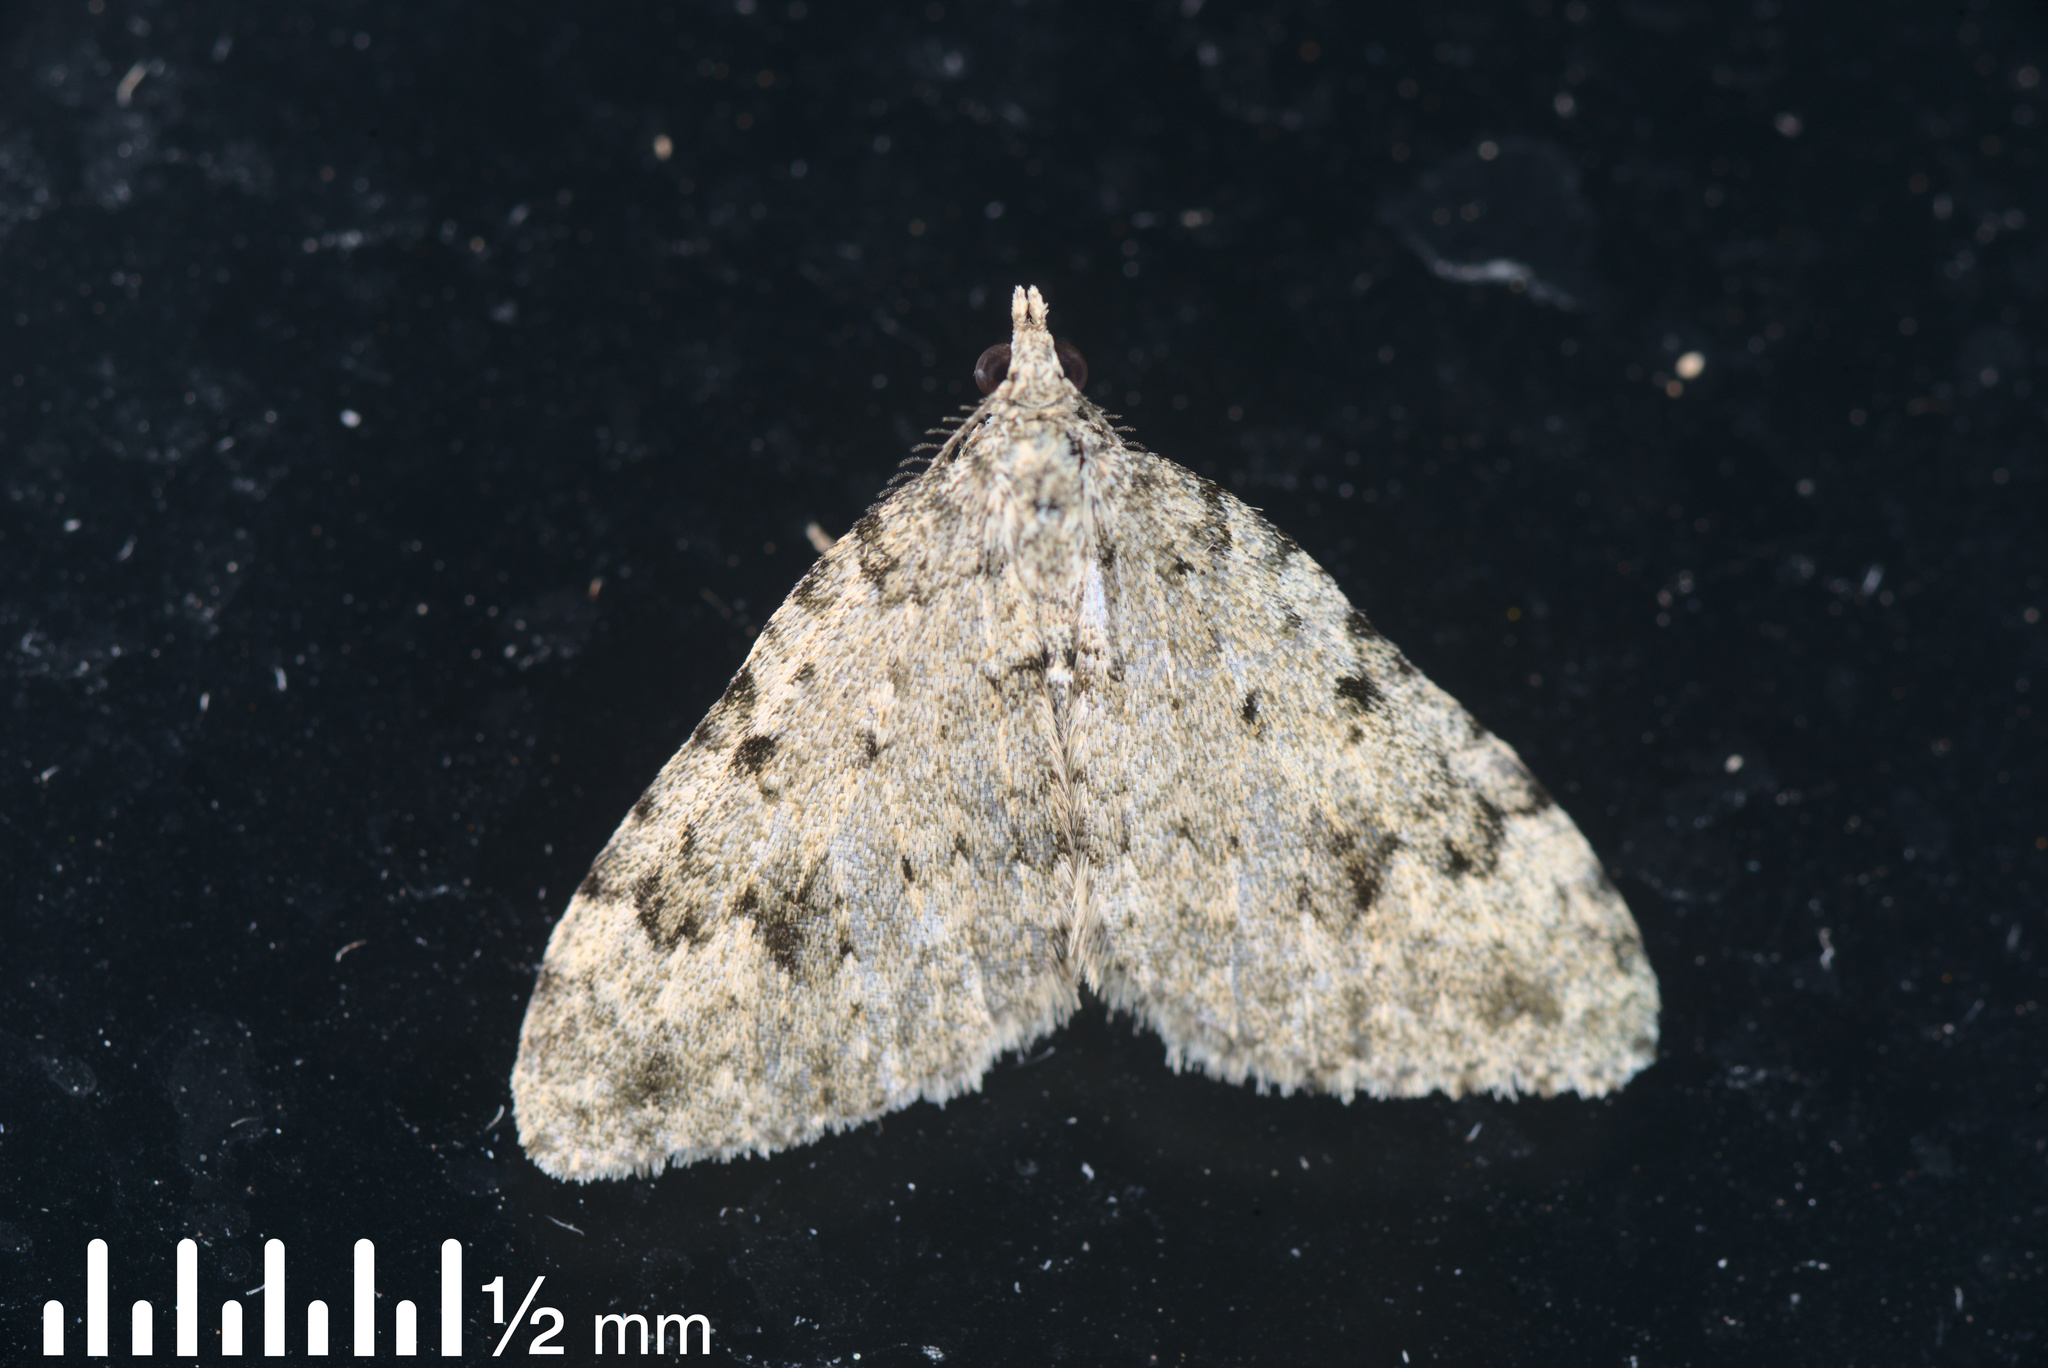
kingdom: Animalia
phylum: Arthropoda
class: Insecta
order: Lepidoptera
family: Geometridae
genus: Helastia
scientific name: Helastia cinerearia
